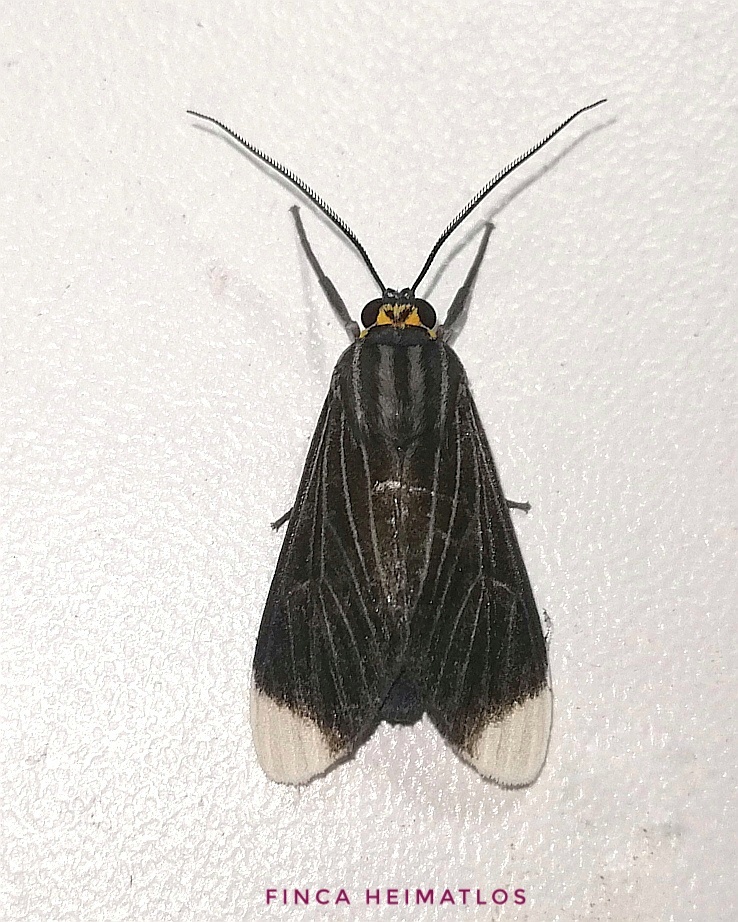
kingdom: Animalia
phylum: Arthropoda
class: Insecta
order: Lepidoptera
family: Erebidae
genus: Episcepsis
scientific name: Episcepsis capysca
